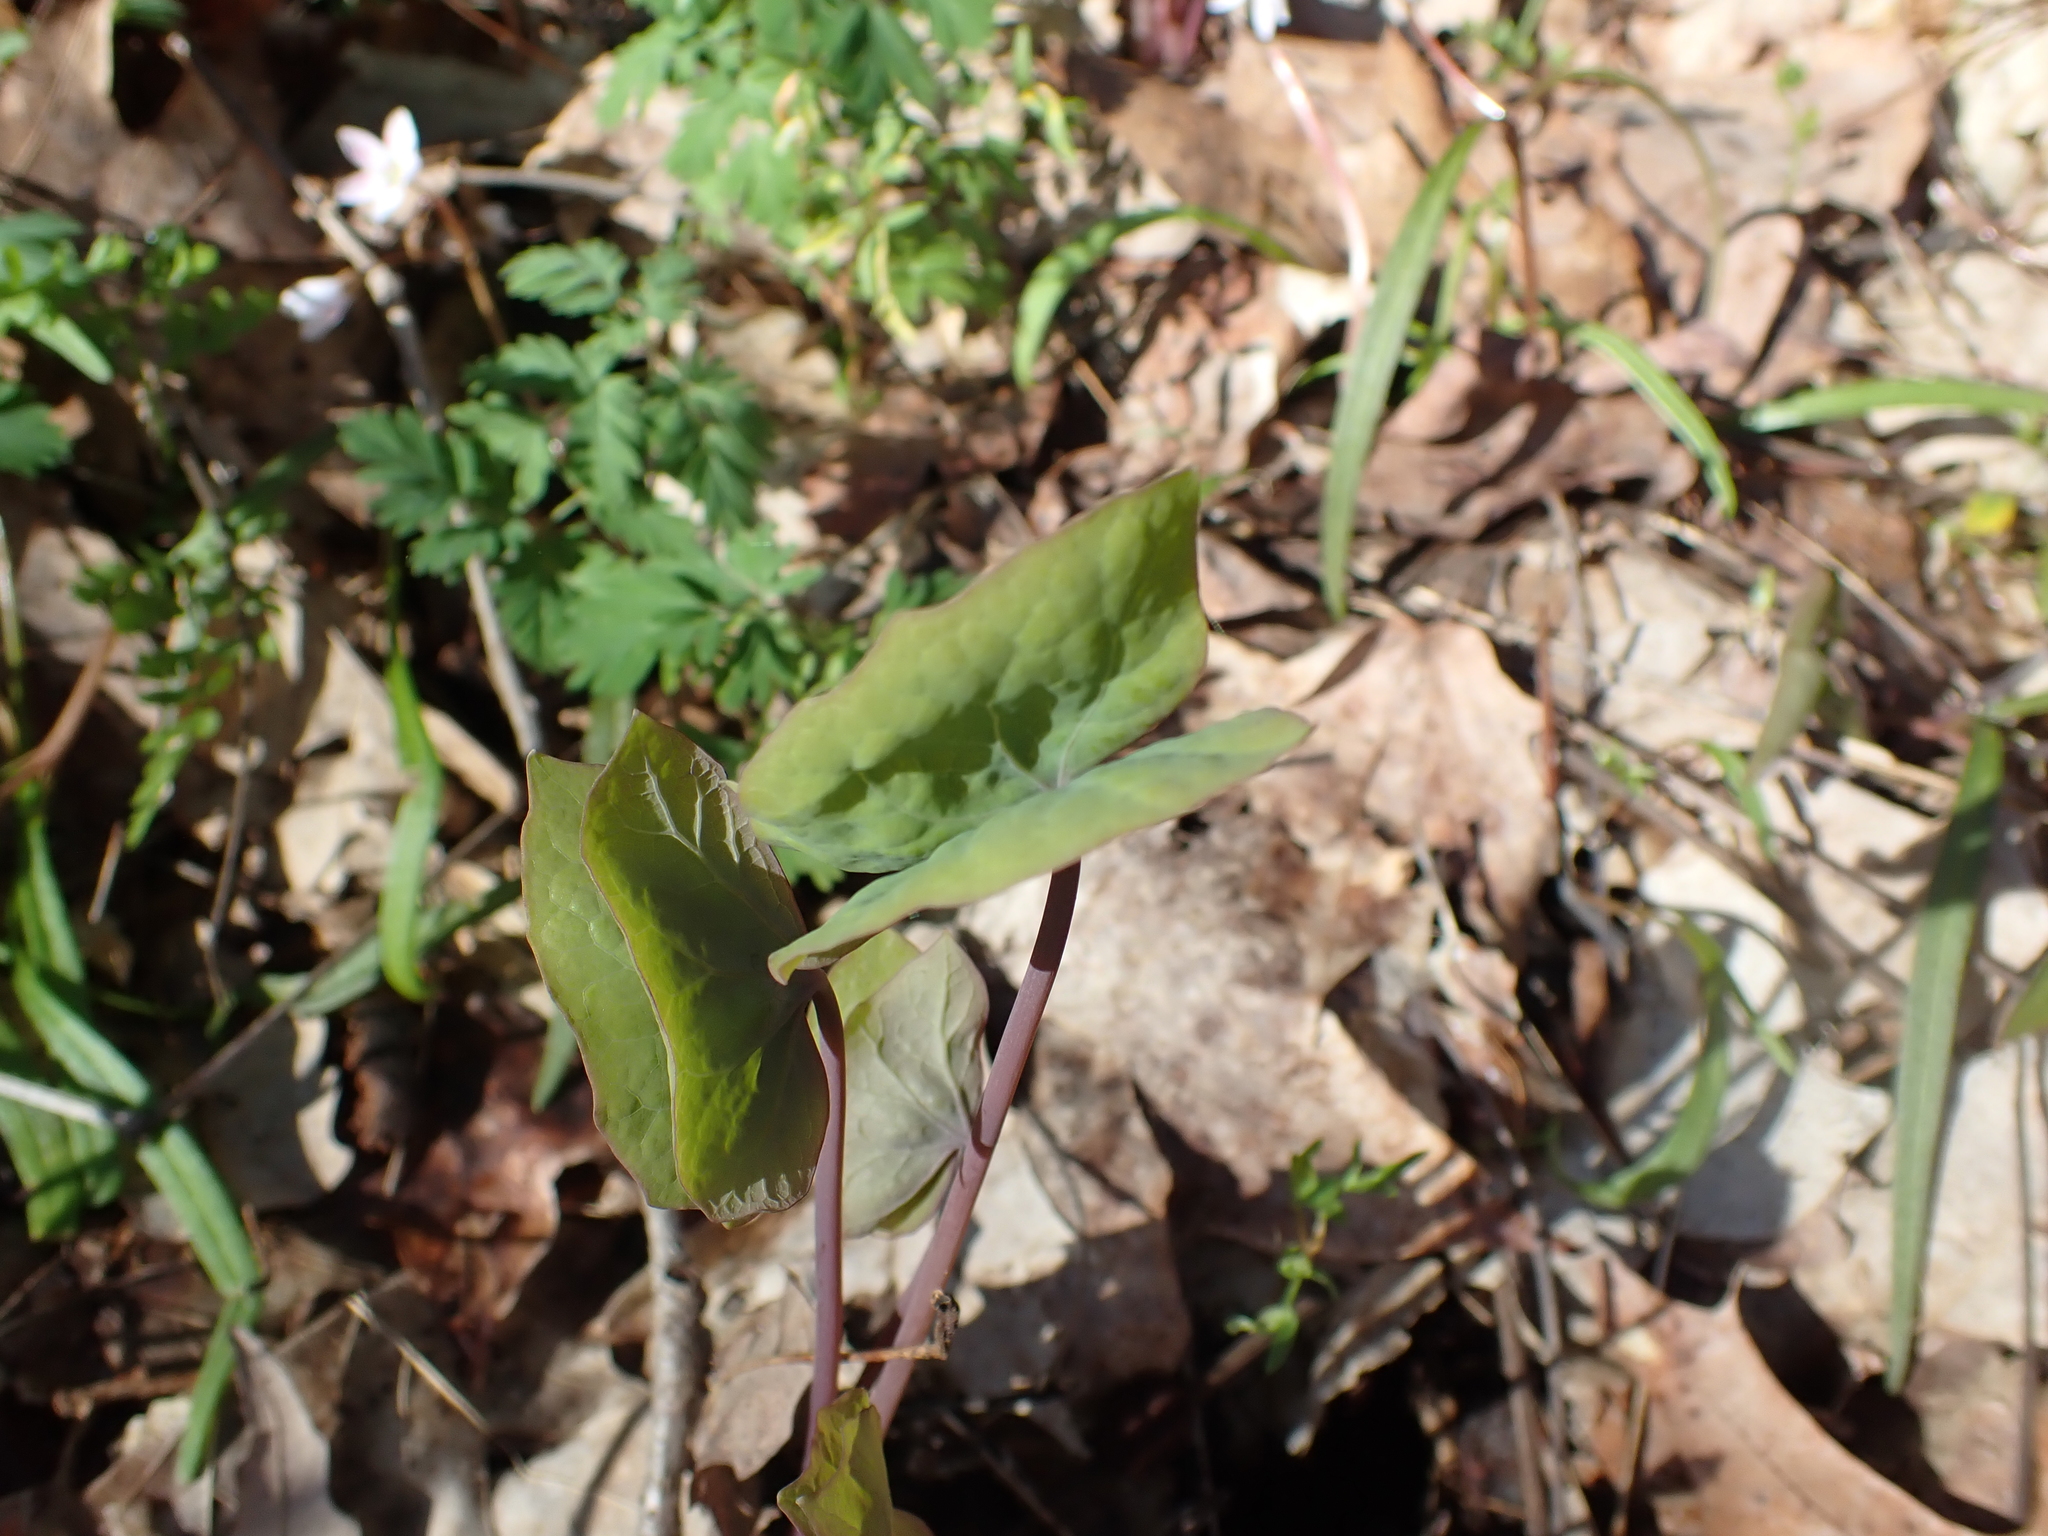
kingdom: Plantae
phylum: Tracheophyta
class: Magnoliopsida
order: Ranunculales
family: Berberidaceae
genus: Jeffersonia
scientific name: Jeffersonia diphylla
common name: Rheumatism-root
